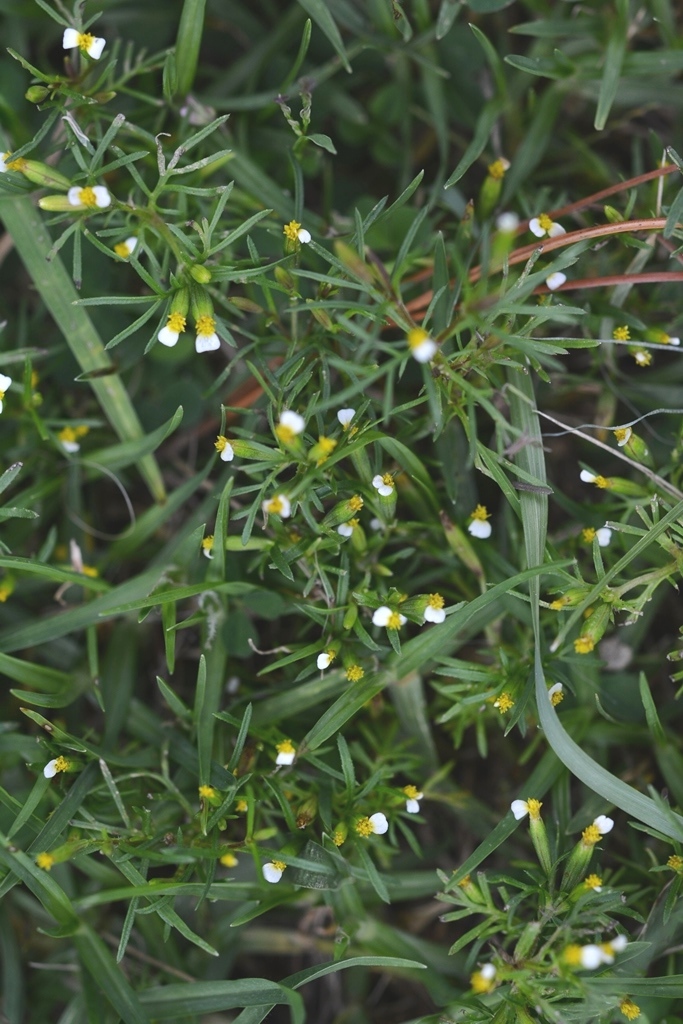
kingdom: Plantae
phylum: Tracheophyta
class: Magnoliopsida
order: Asterales
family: Asteraceae
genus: Tagetes
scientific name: Tagetes filifolia
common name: Lesser marigold
